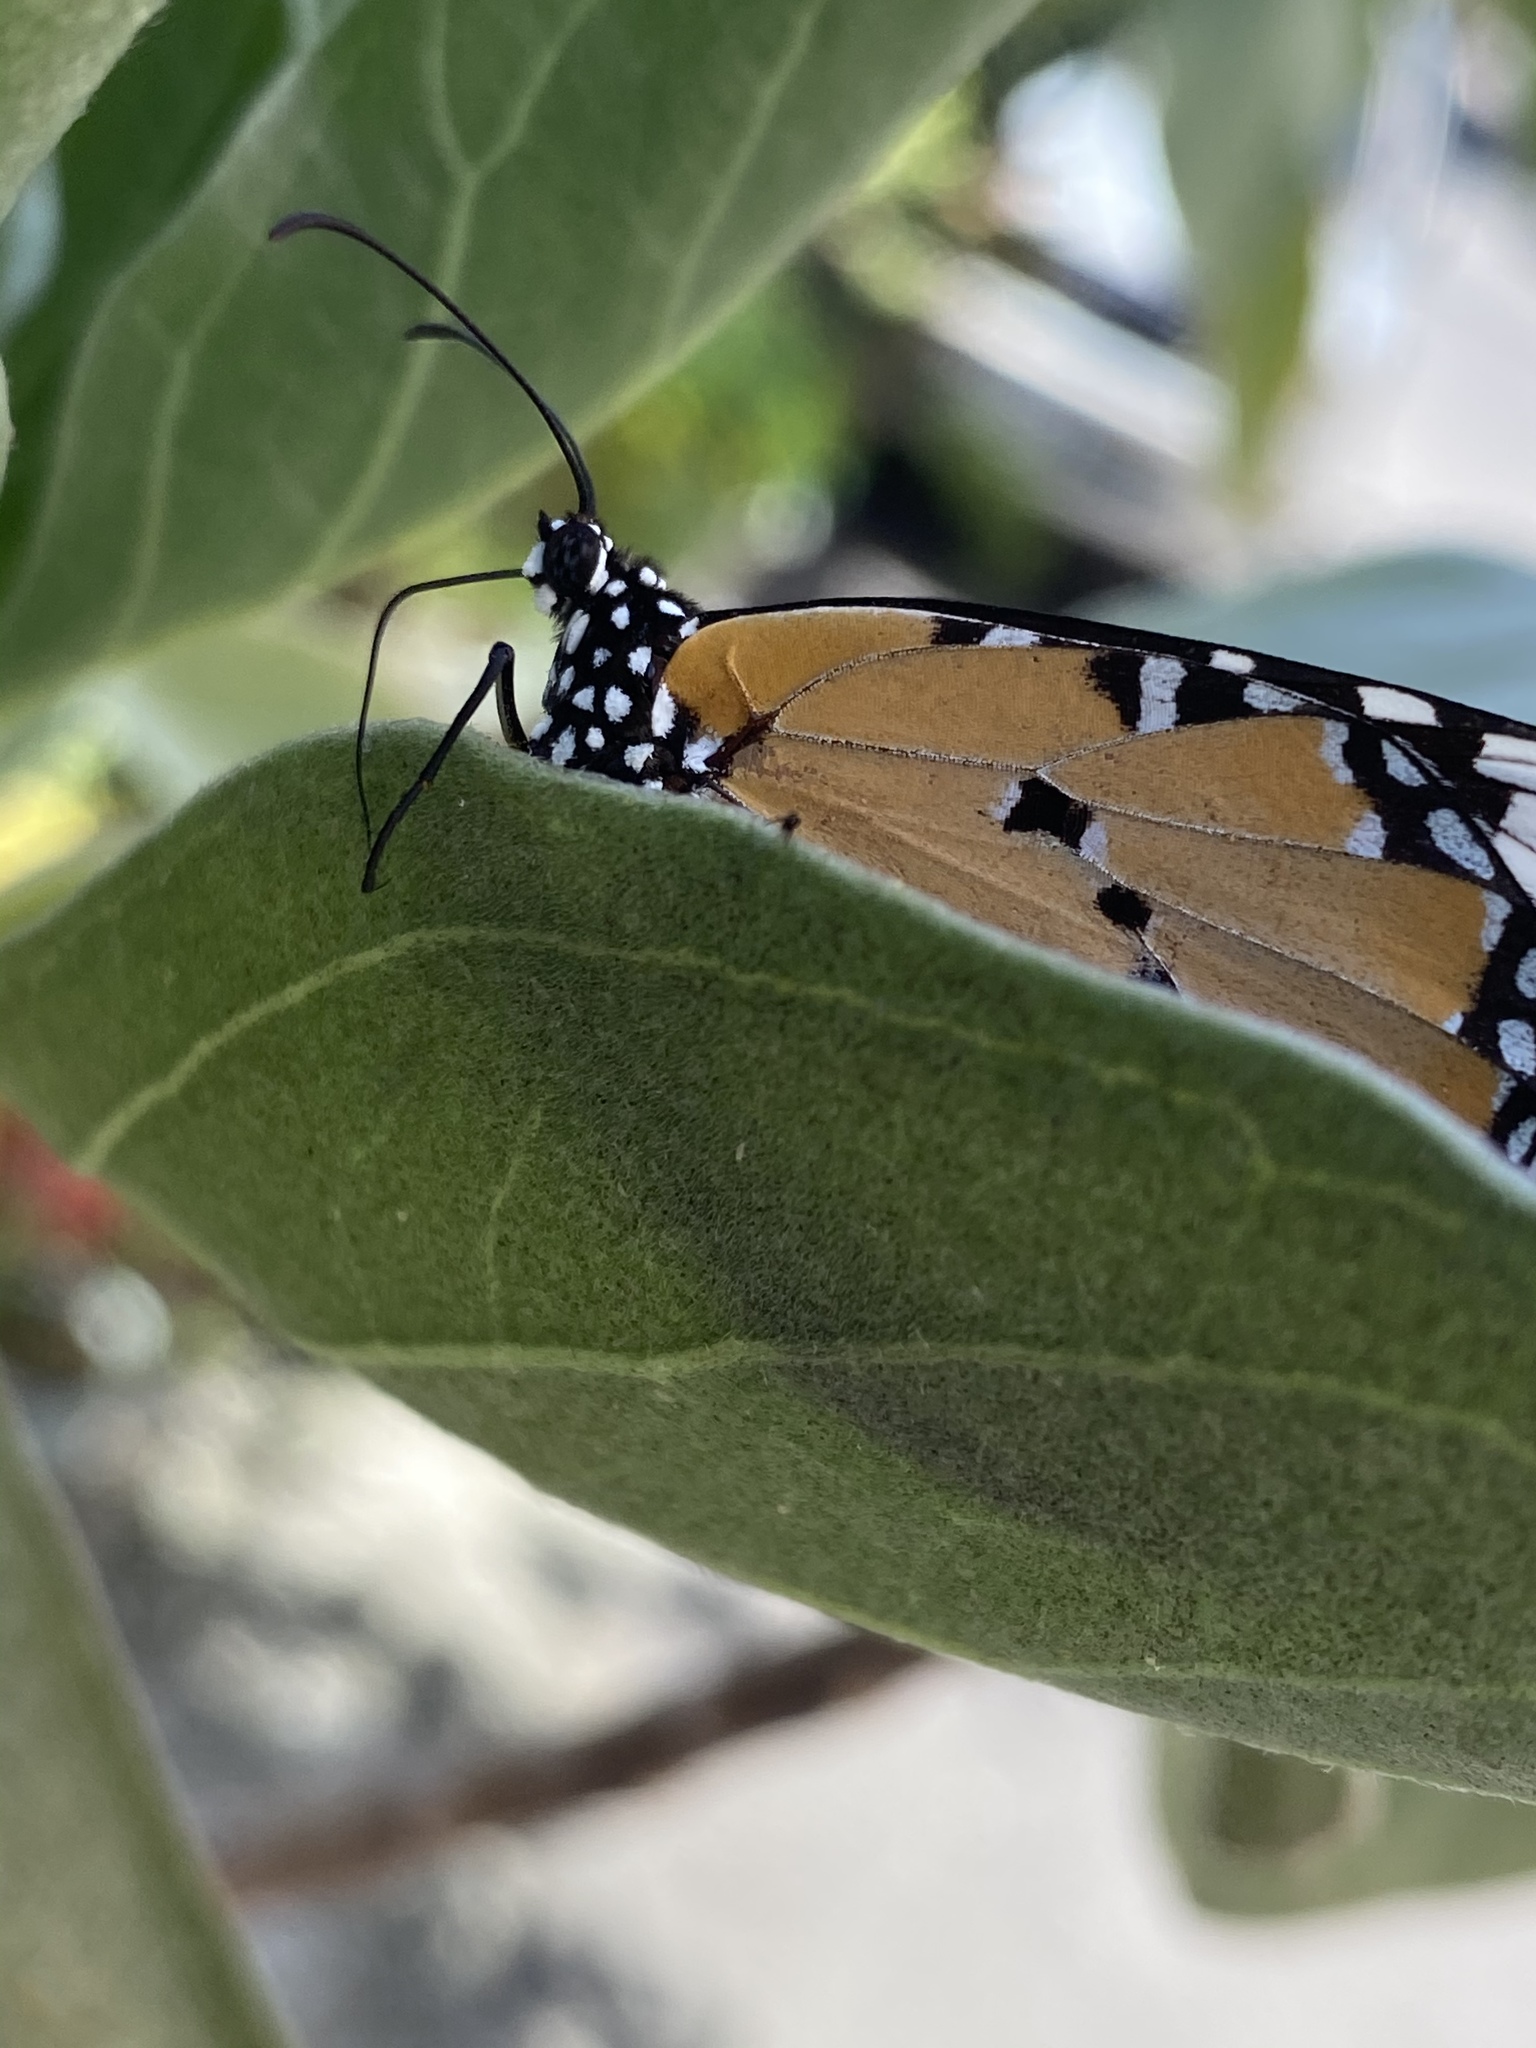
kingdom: Animalia
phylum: Arthropoda
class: Insecta
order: Lepidoptera
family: Nymphalidae
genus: Danaus
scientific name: Danaus chrysippus
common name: Plain tiger
